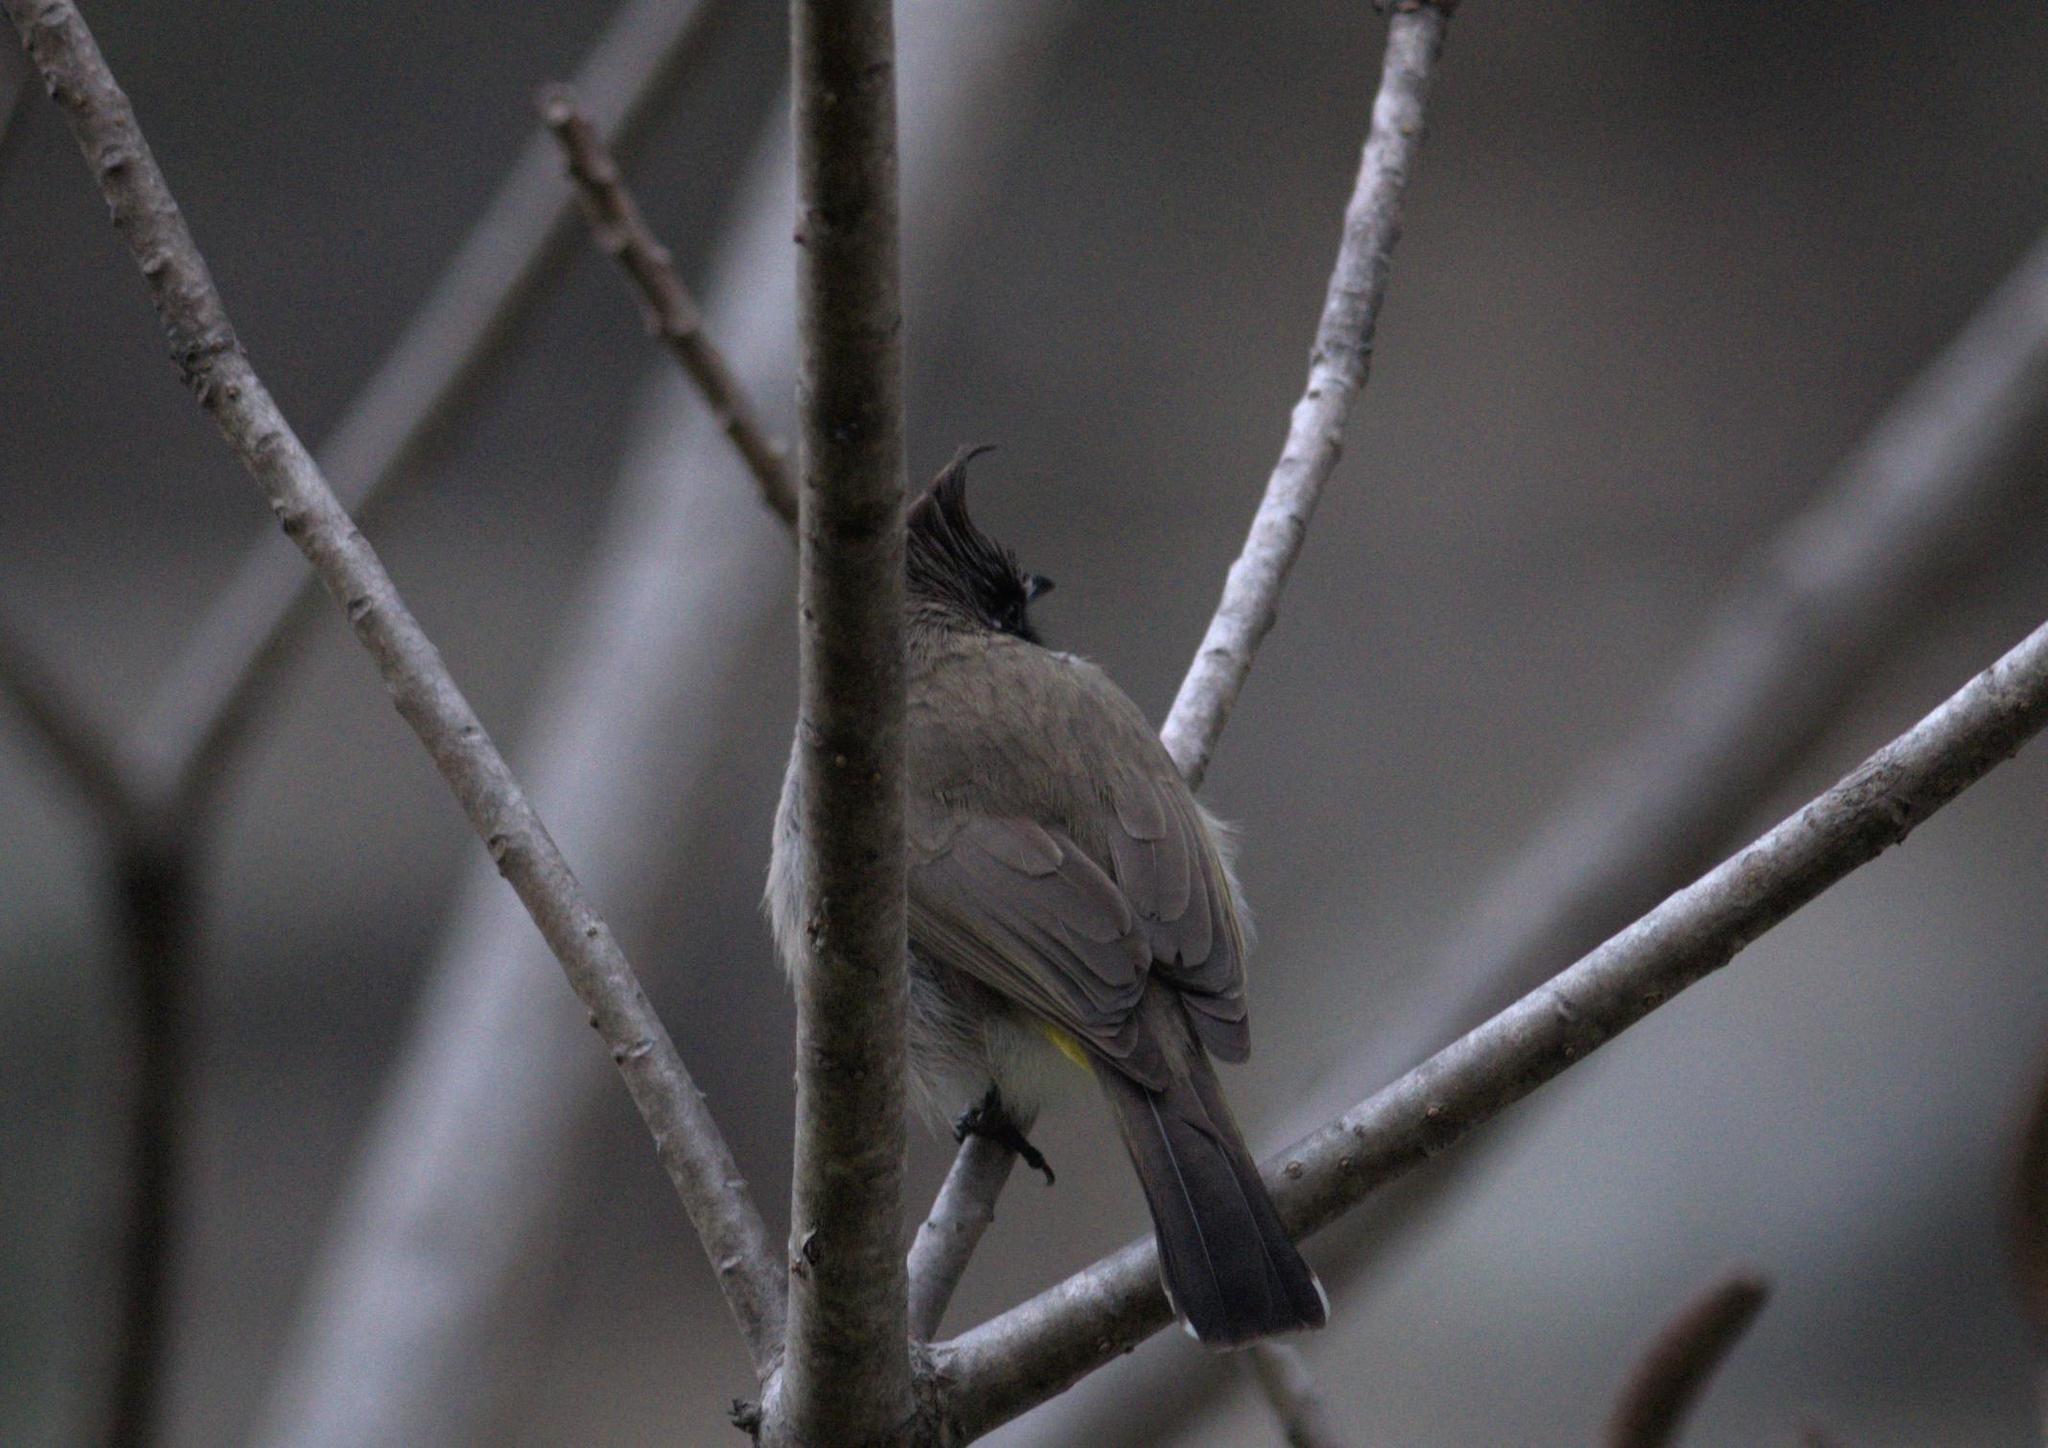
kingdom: Animalia
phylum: Chordata
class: Aves
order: Passeriformes
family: Pycnonotidae
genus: Pycnonotus
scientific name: Pycnonotus leucogenys
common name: Himalayan bulbul
